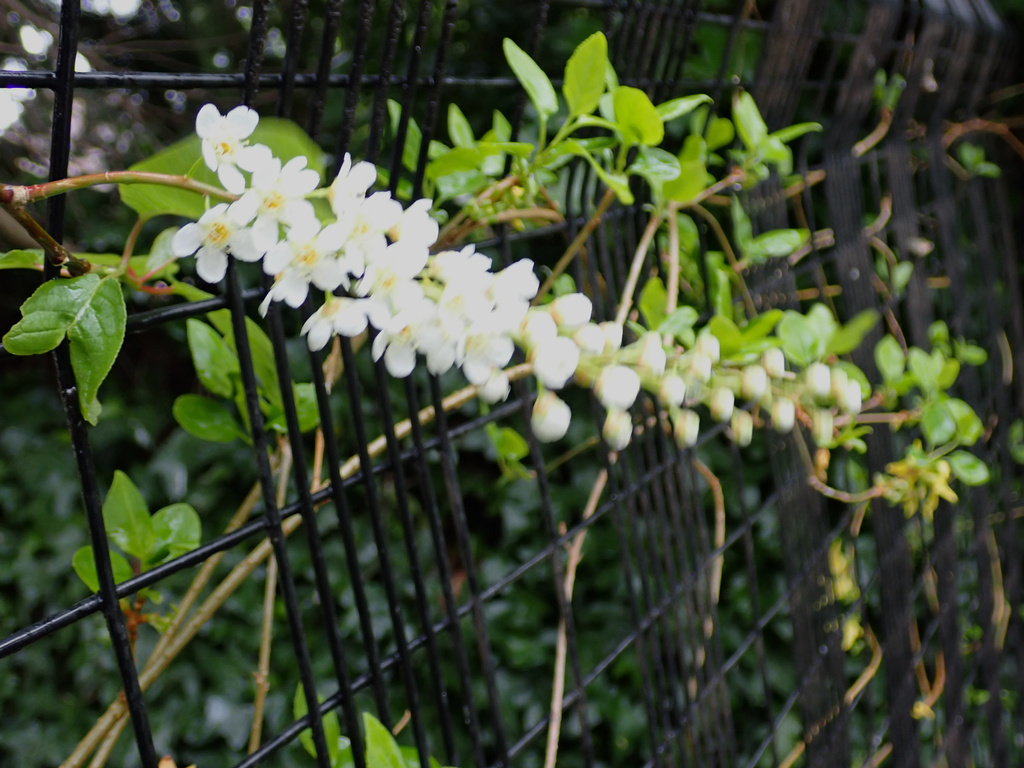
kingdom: Plantae
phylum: Tracheophyta
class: Magnoliopsida
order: Rosales
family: Rosaceae
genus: Prunus
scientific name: Prunus padus
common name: Bird cherry
